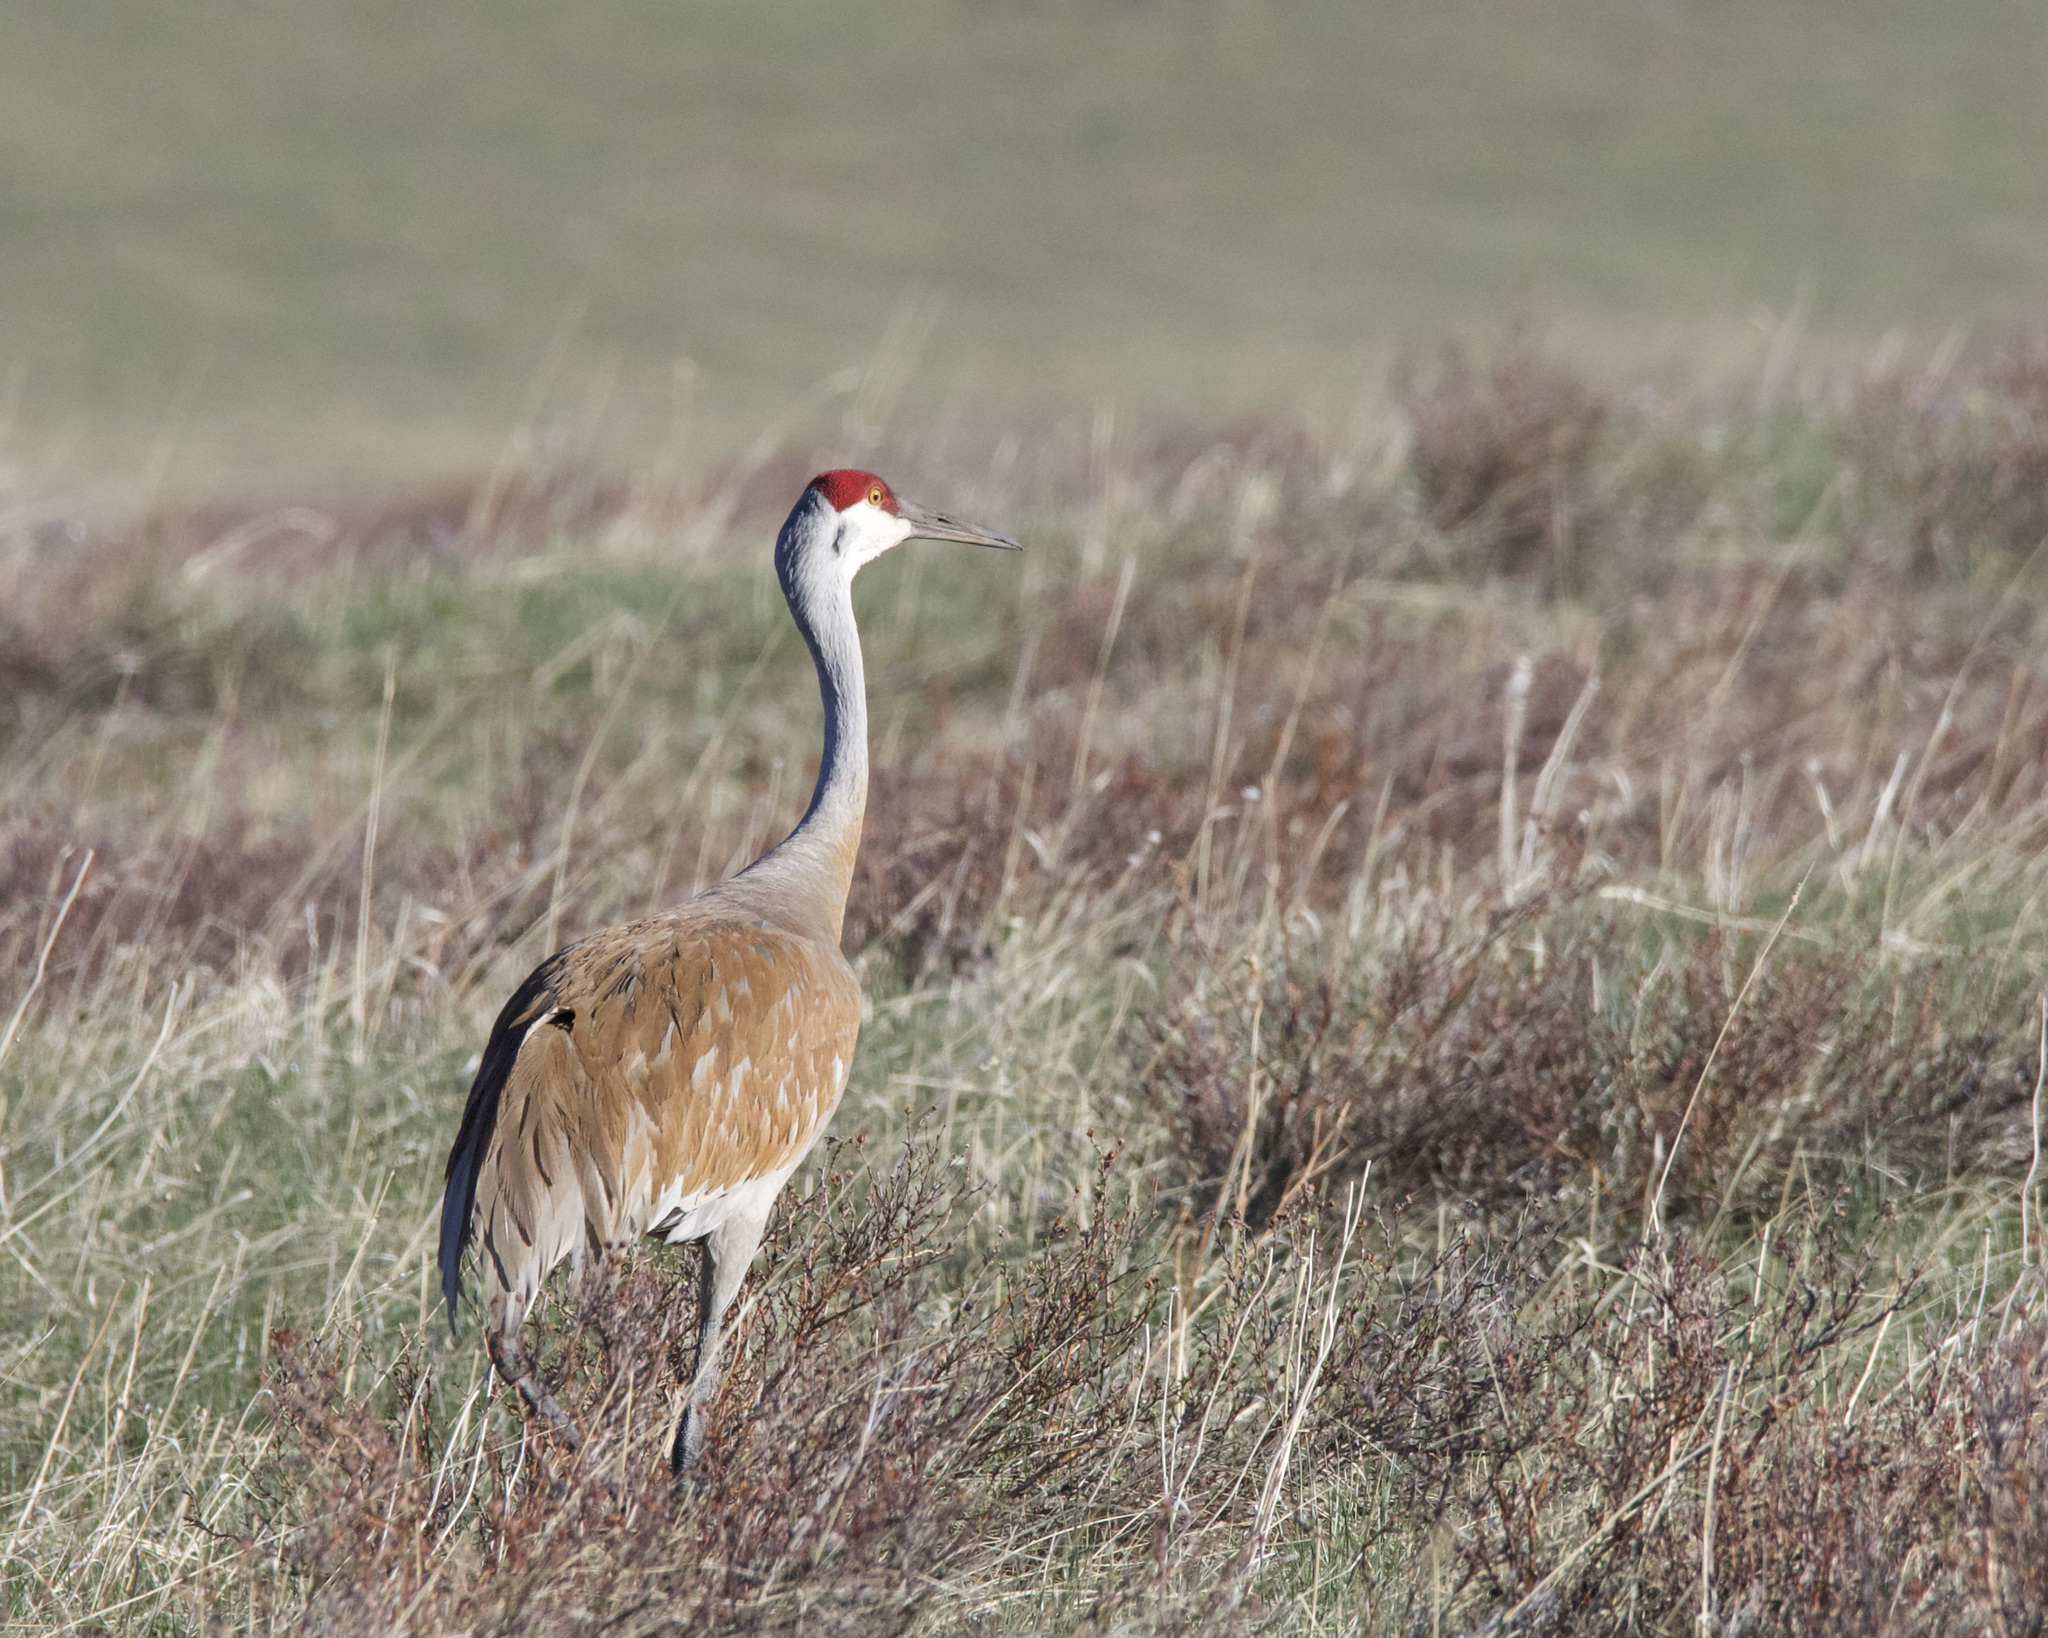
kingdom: Animalia
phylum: Chordata
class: Aves
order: Gruiformes
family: Gruidae
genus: Grus
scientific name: Grus canadensis
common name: Sandhill crane
